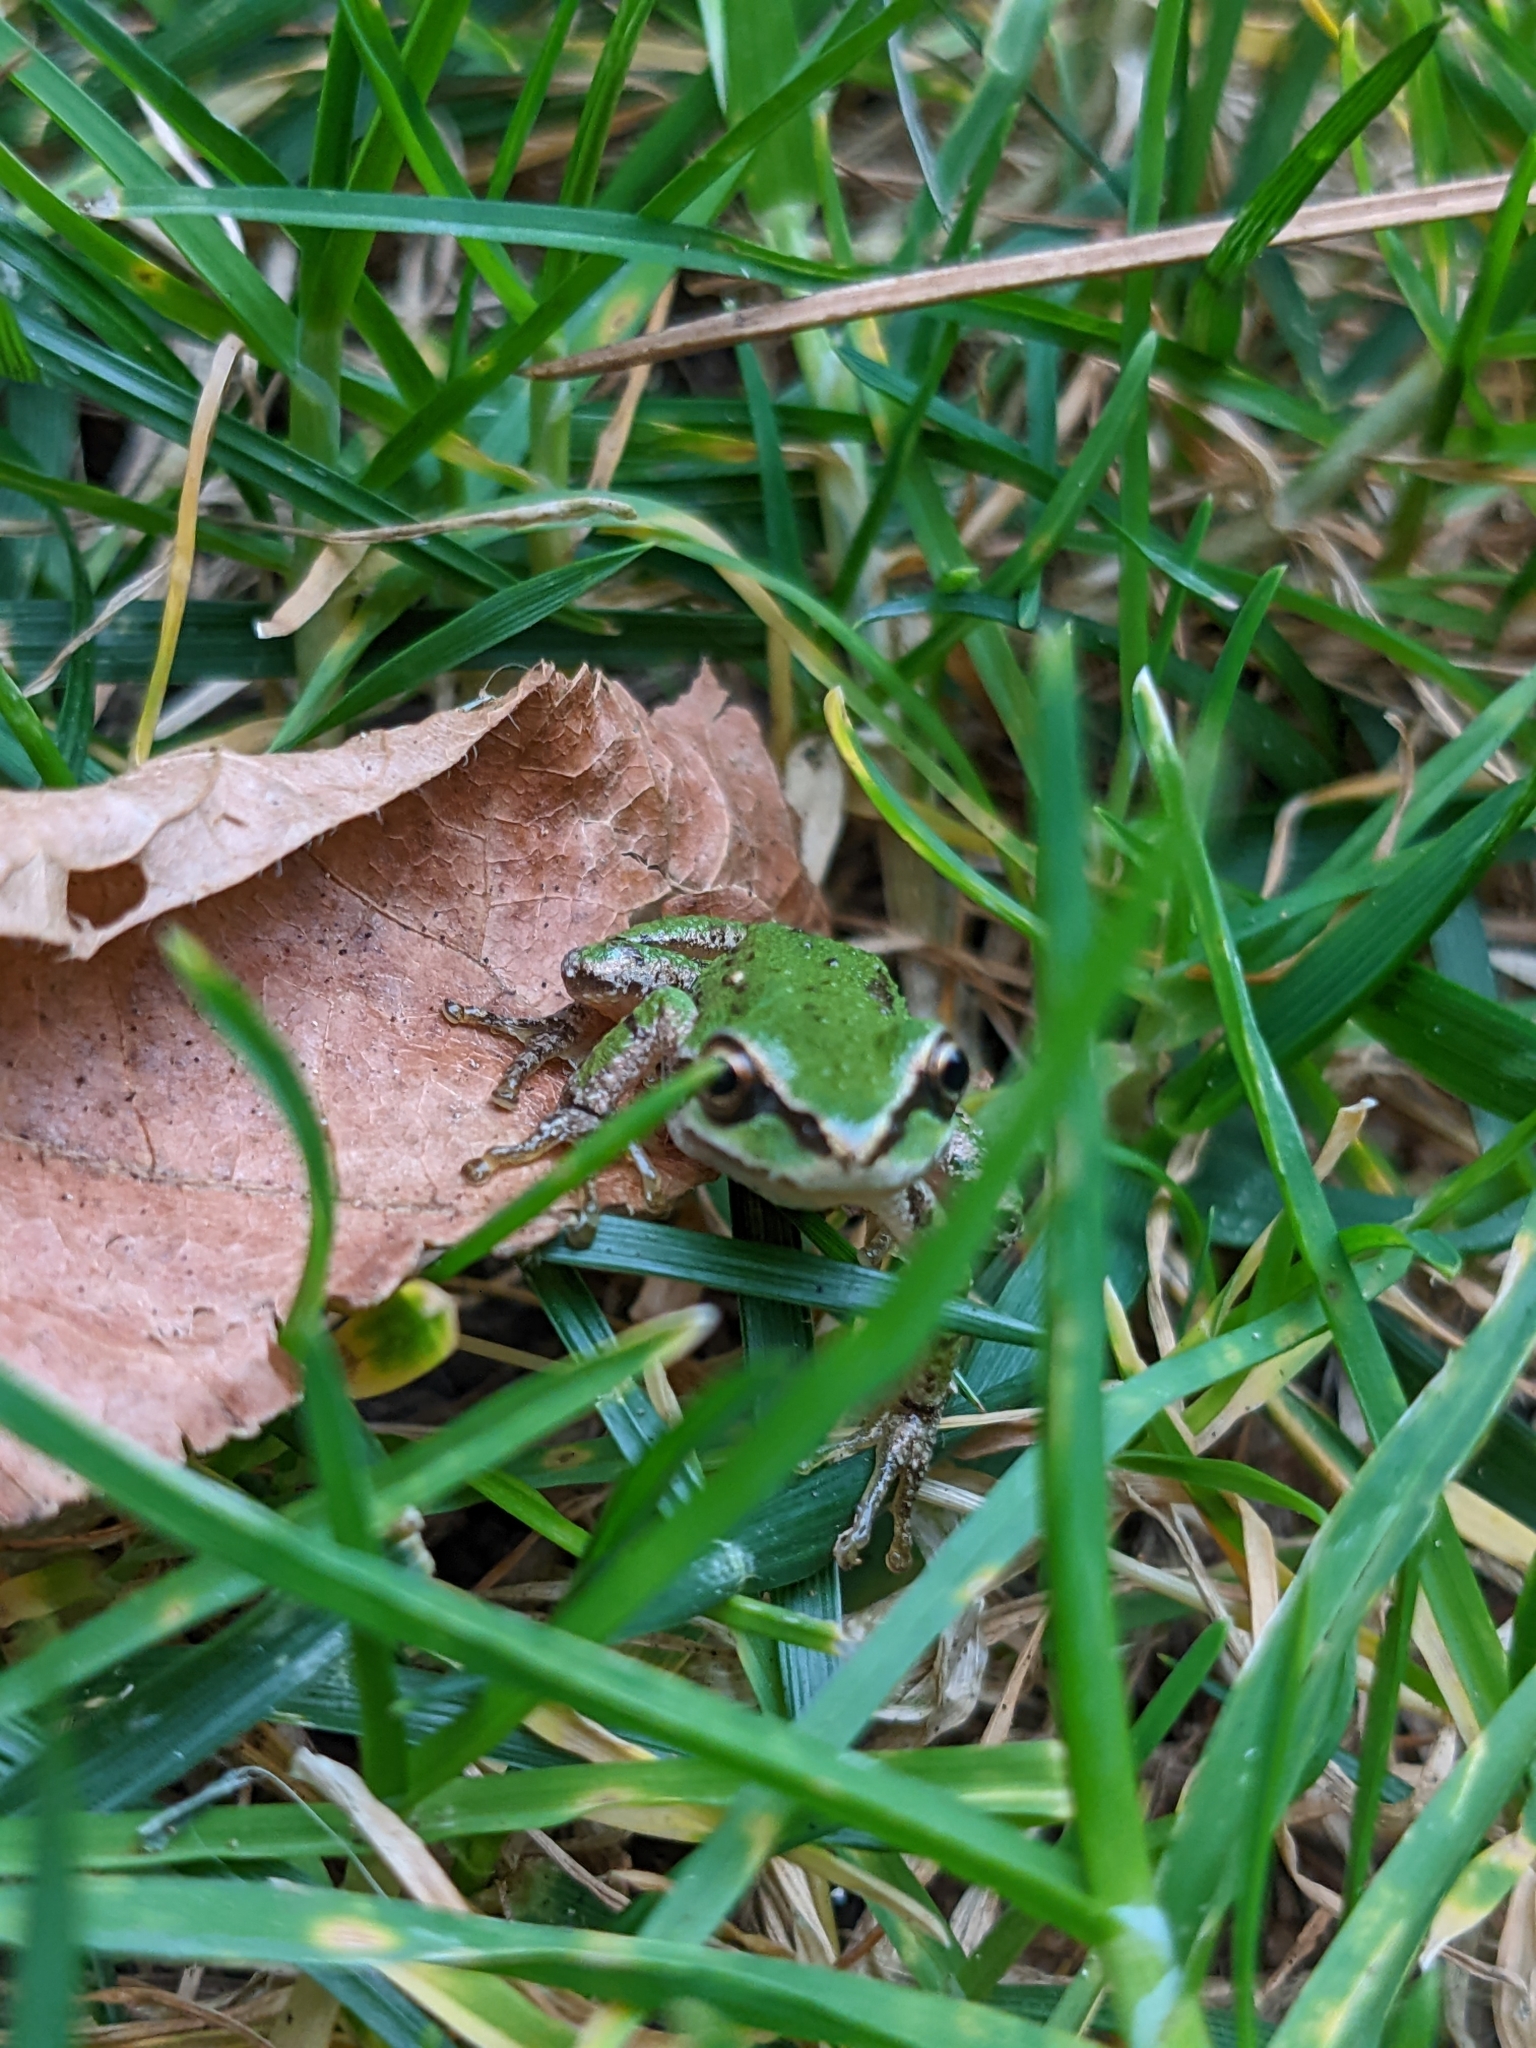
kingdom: Animalia
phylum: Chordata
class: Amphibia
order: Anura
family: Hylidae
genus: Pseudacris
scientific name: Pseudacris regilla
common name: Pacific chorus frog
